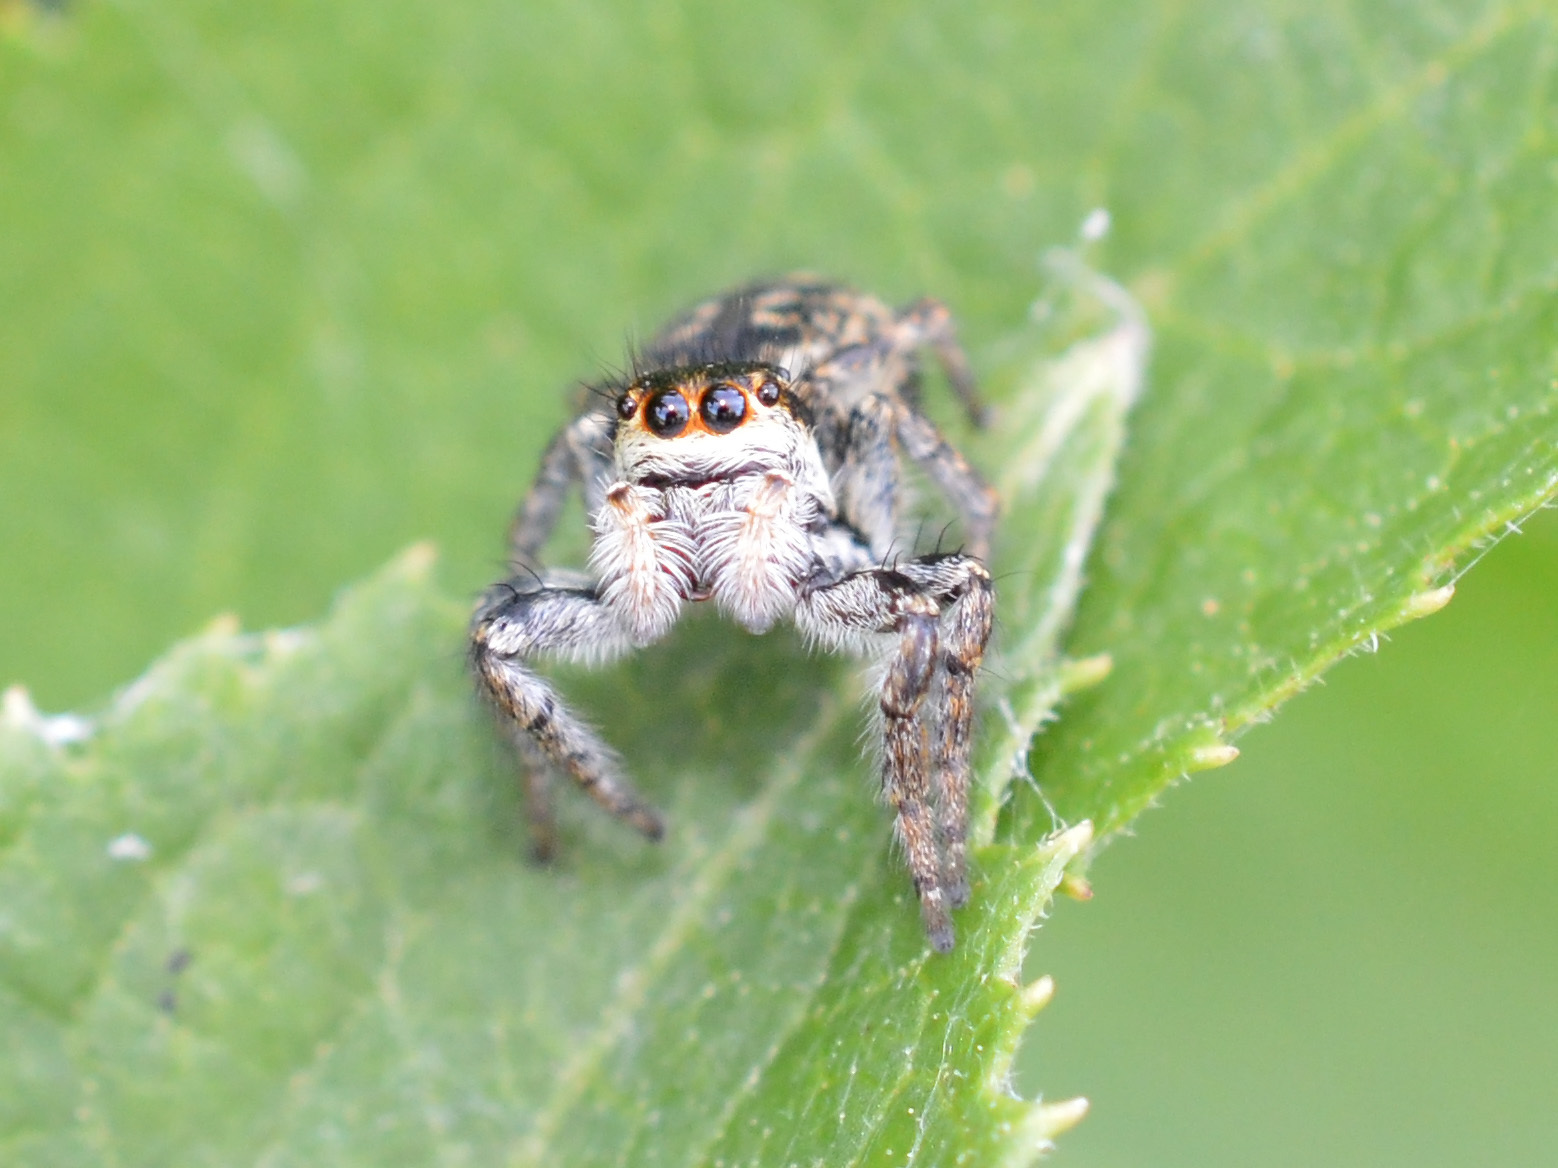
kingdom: Animalia
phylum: Arthropoda
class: Arachnida
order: Araneae
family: Salticidae
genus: Carrhotus
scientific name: Carrhotus xanthogramma
